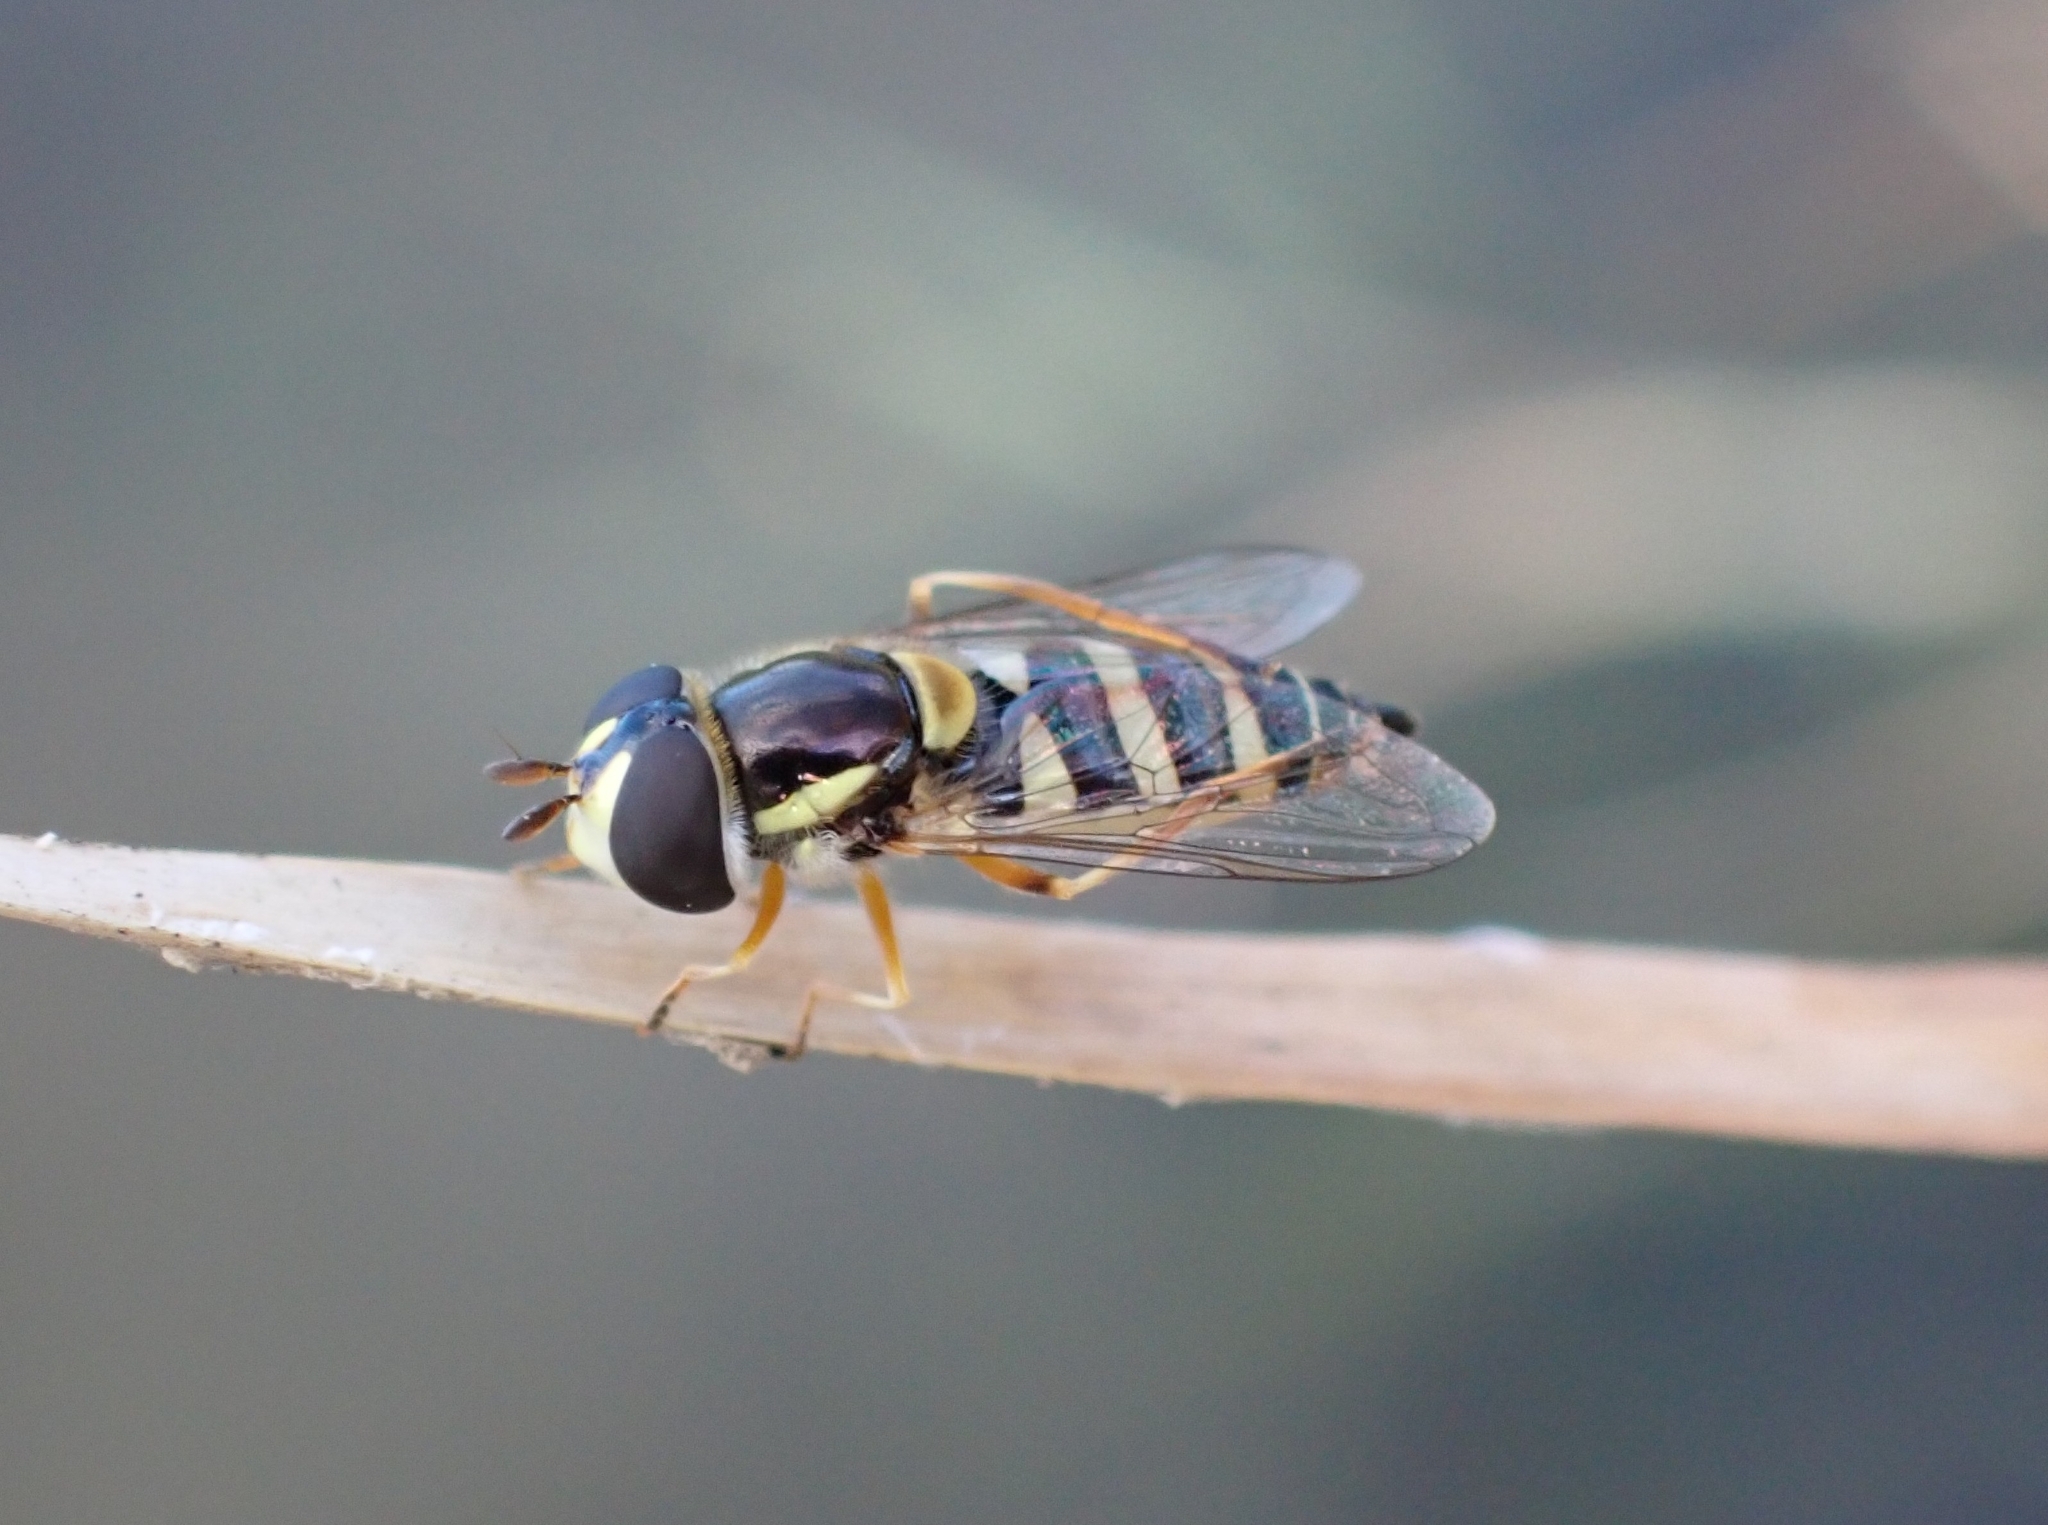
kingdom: Animalia
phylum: Arthropoda
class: Insecta
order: Diptera
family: Syrphidae
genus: Ischiodon
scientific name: Ischiodon aegyptius
